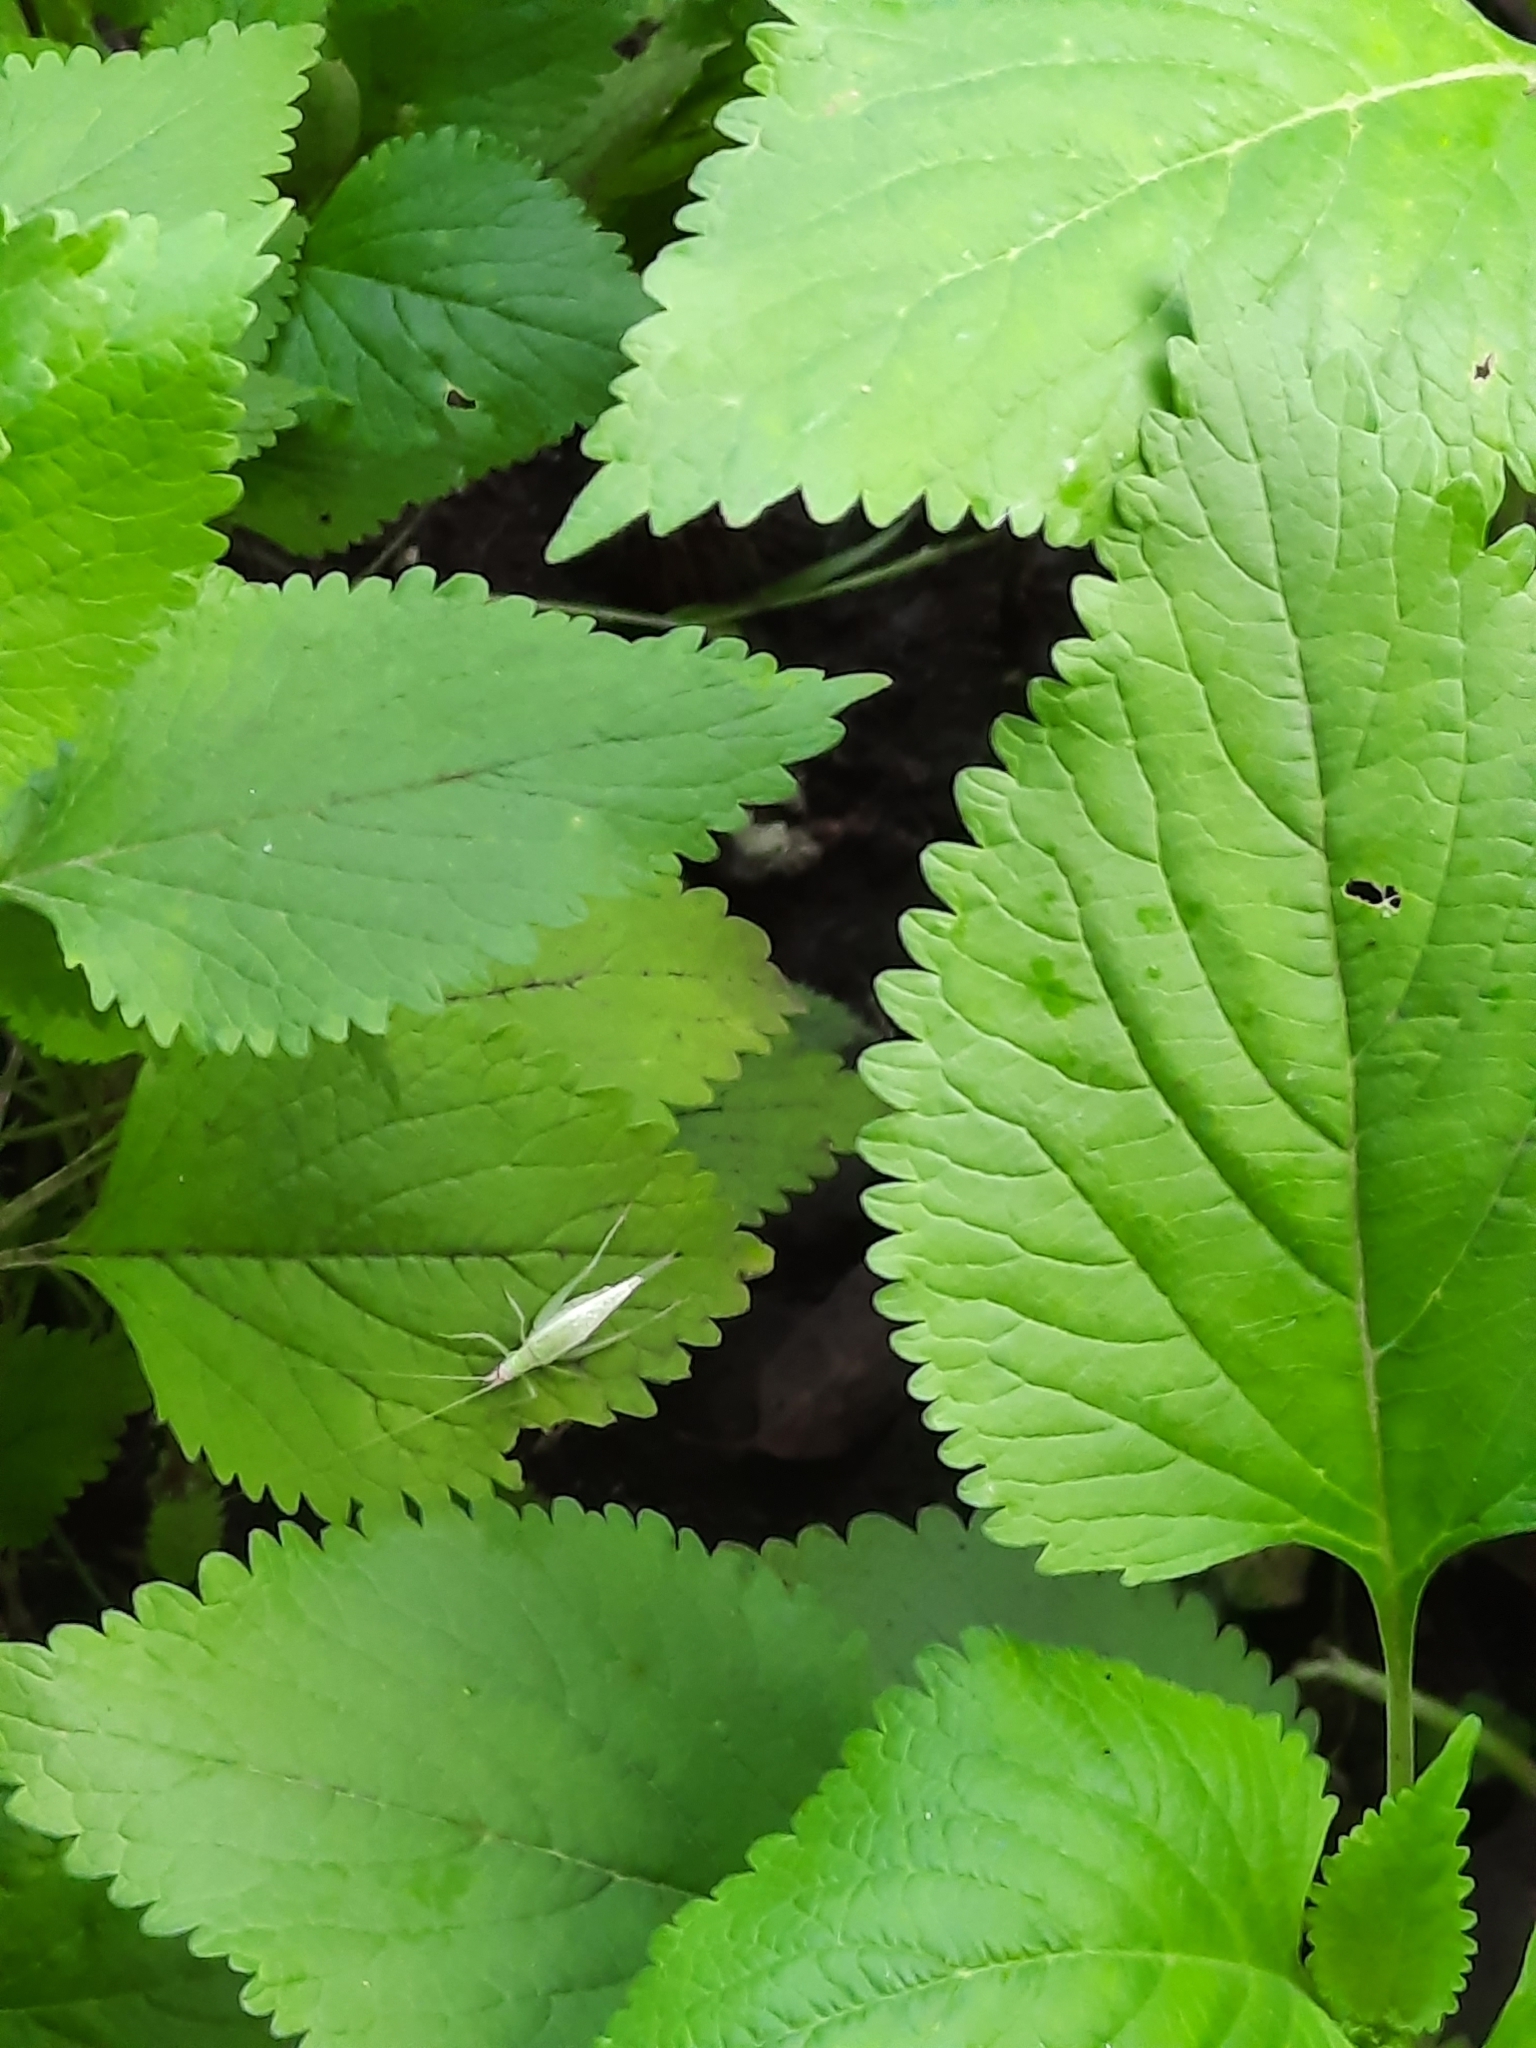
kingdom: Animalia
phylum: Arthropoda
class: Insecta
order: Orthoptera
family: Gryllidae
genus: Oecanthus
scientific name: Oecanthus mhatreae
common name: Otomi tree cricket
